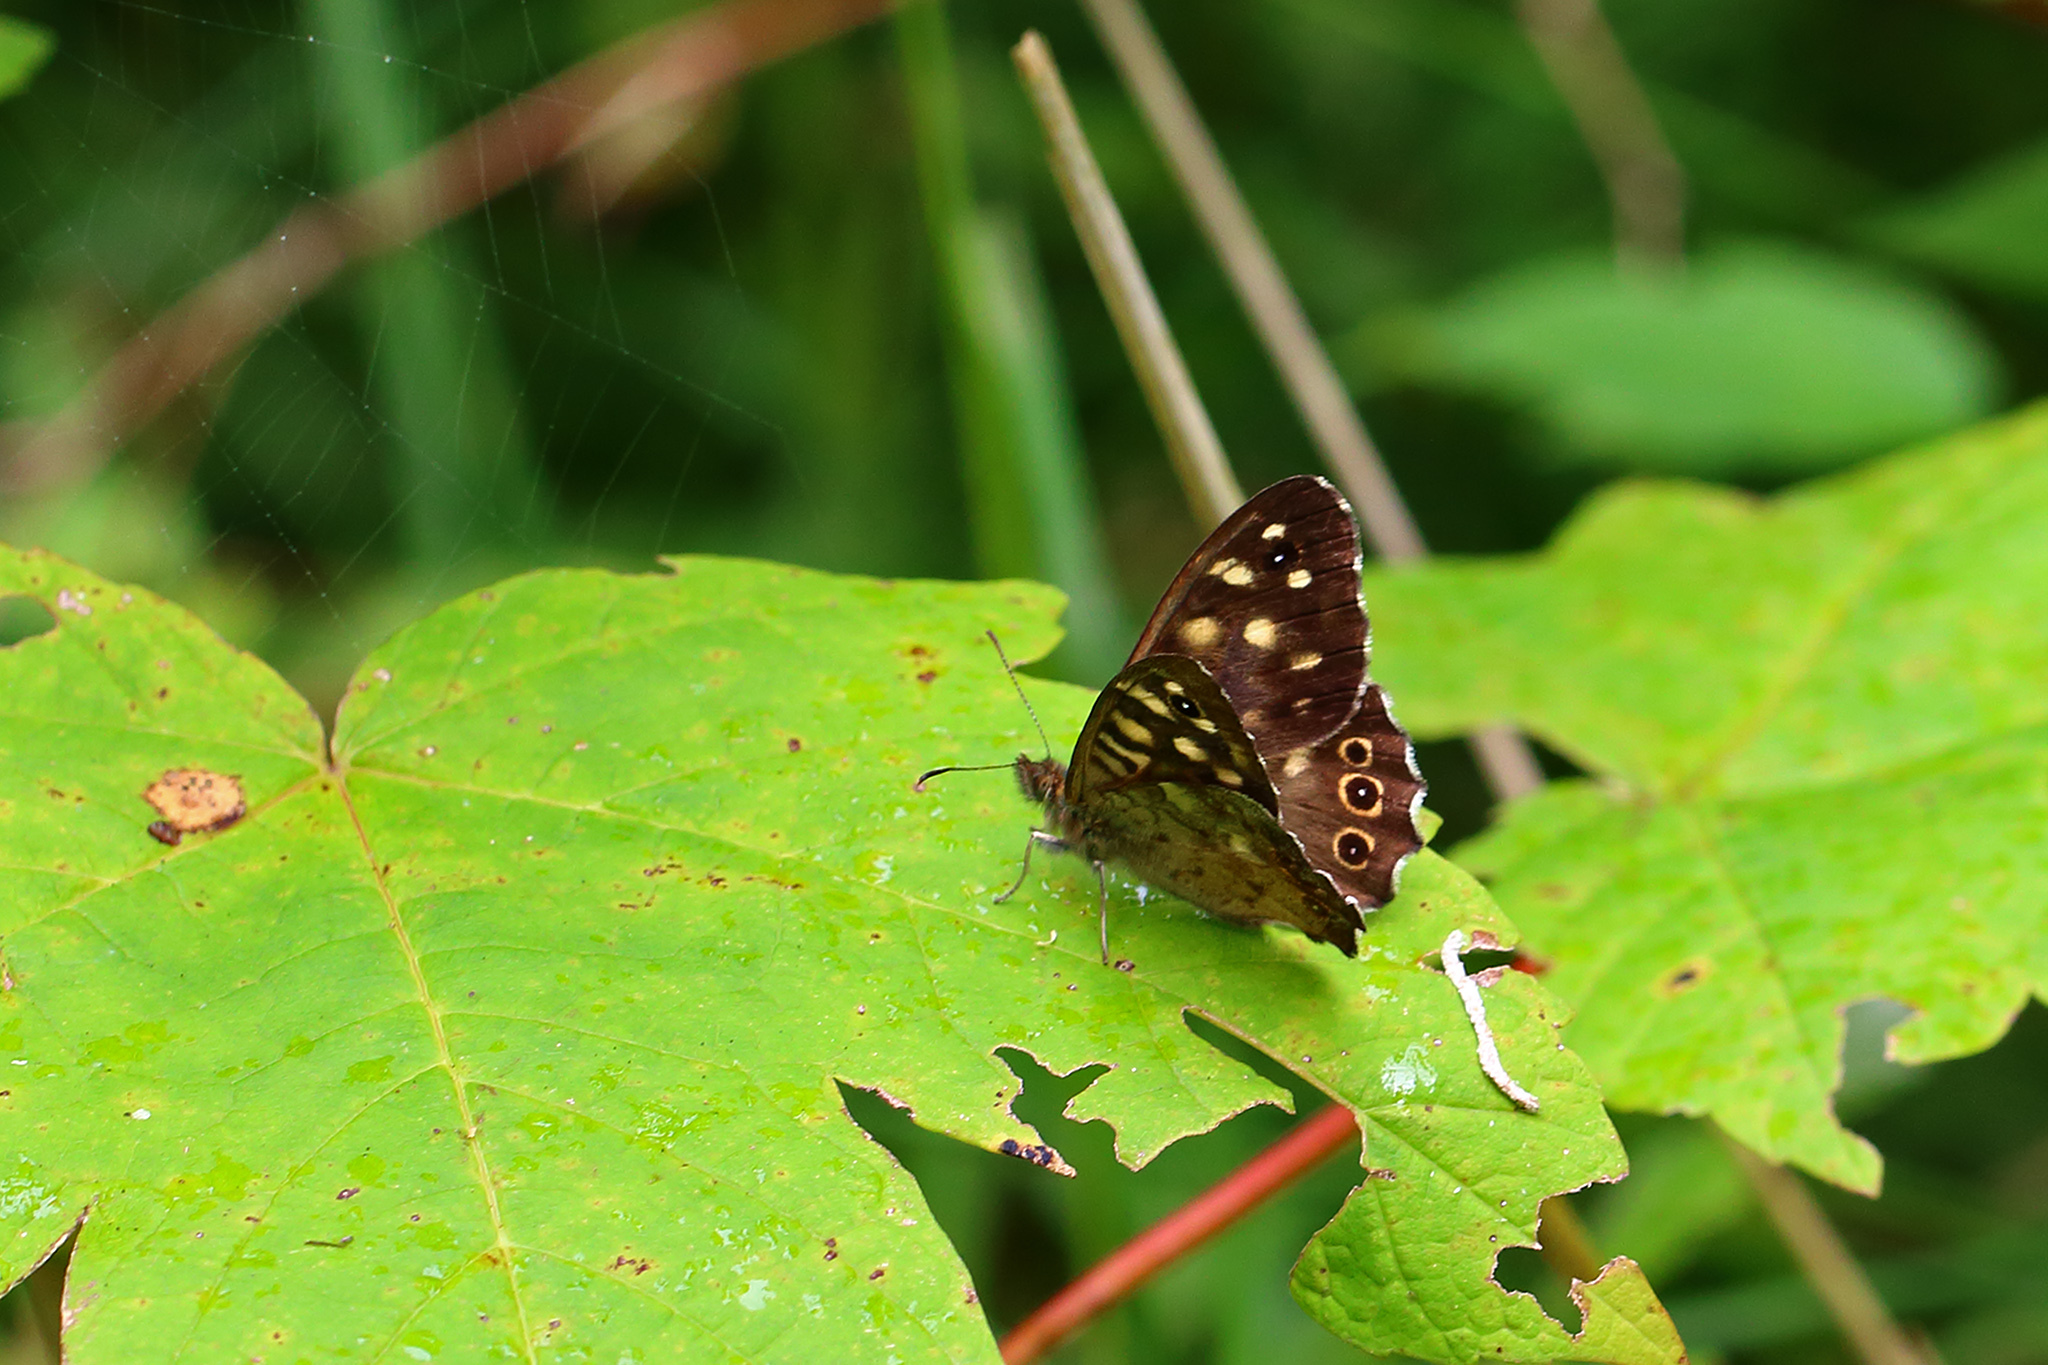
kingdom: Animalia
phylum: Arthropoda
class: Insecta
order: Lepidoptera
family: Nymphalidae
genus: Pararge
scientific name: Pararge aegeria
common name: Speckled wood
